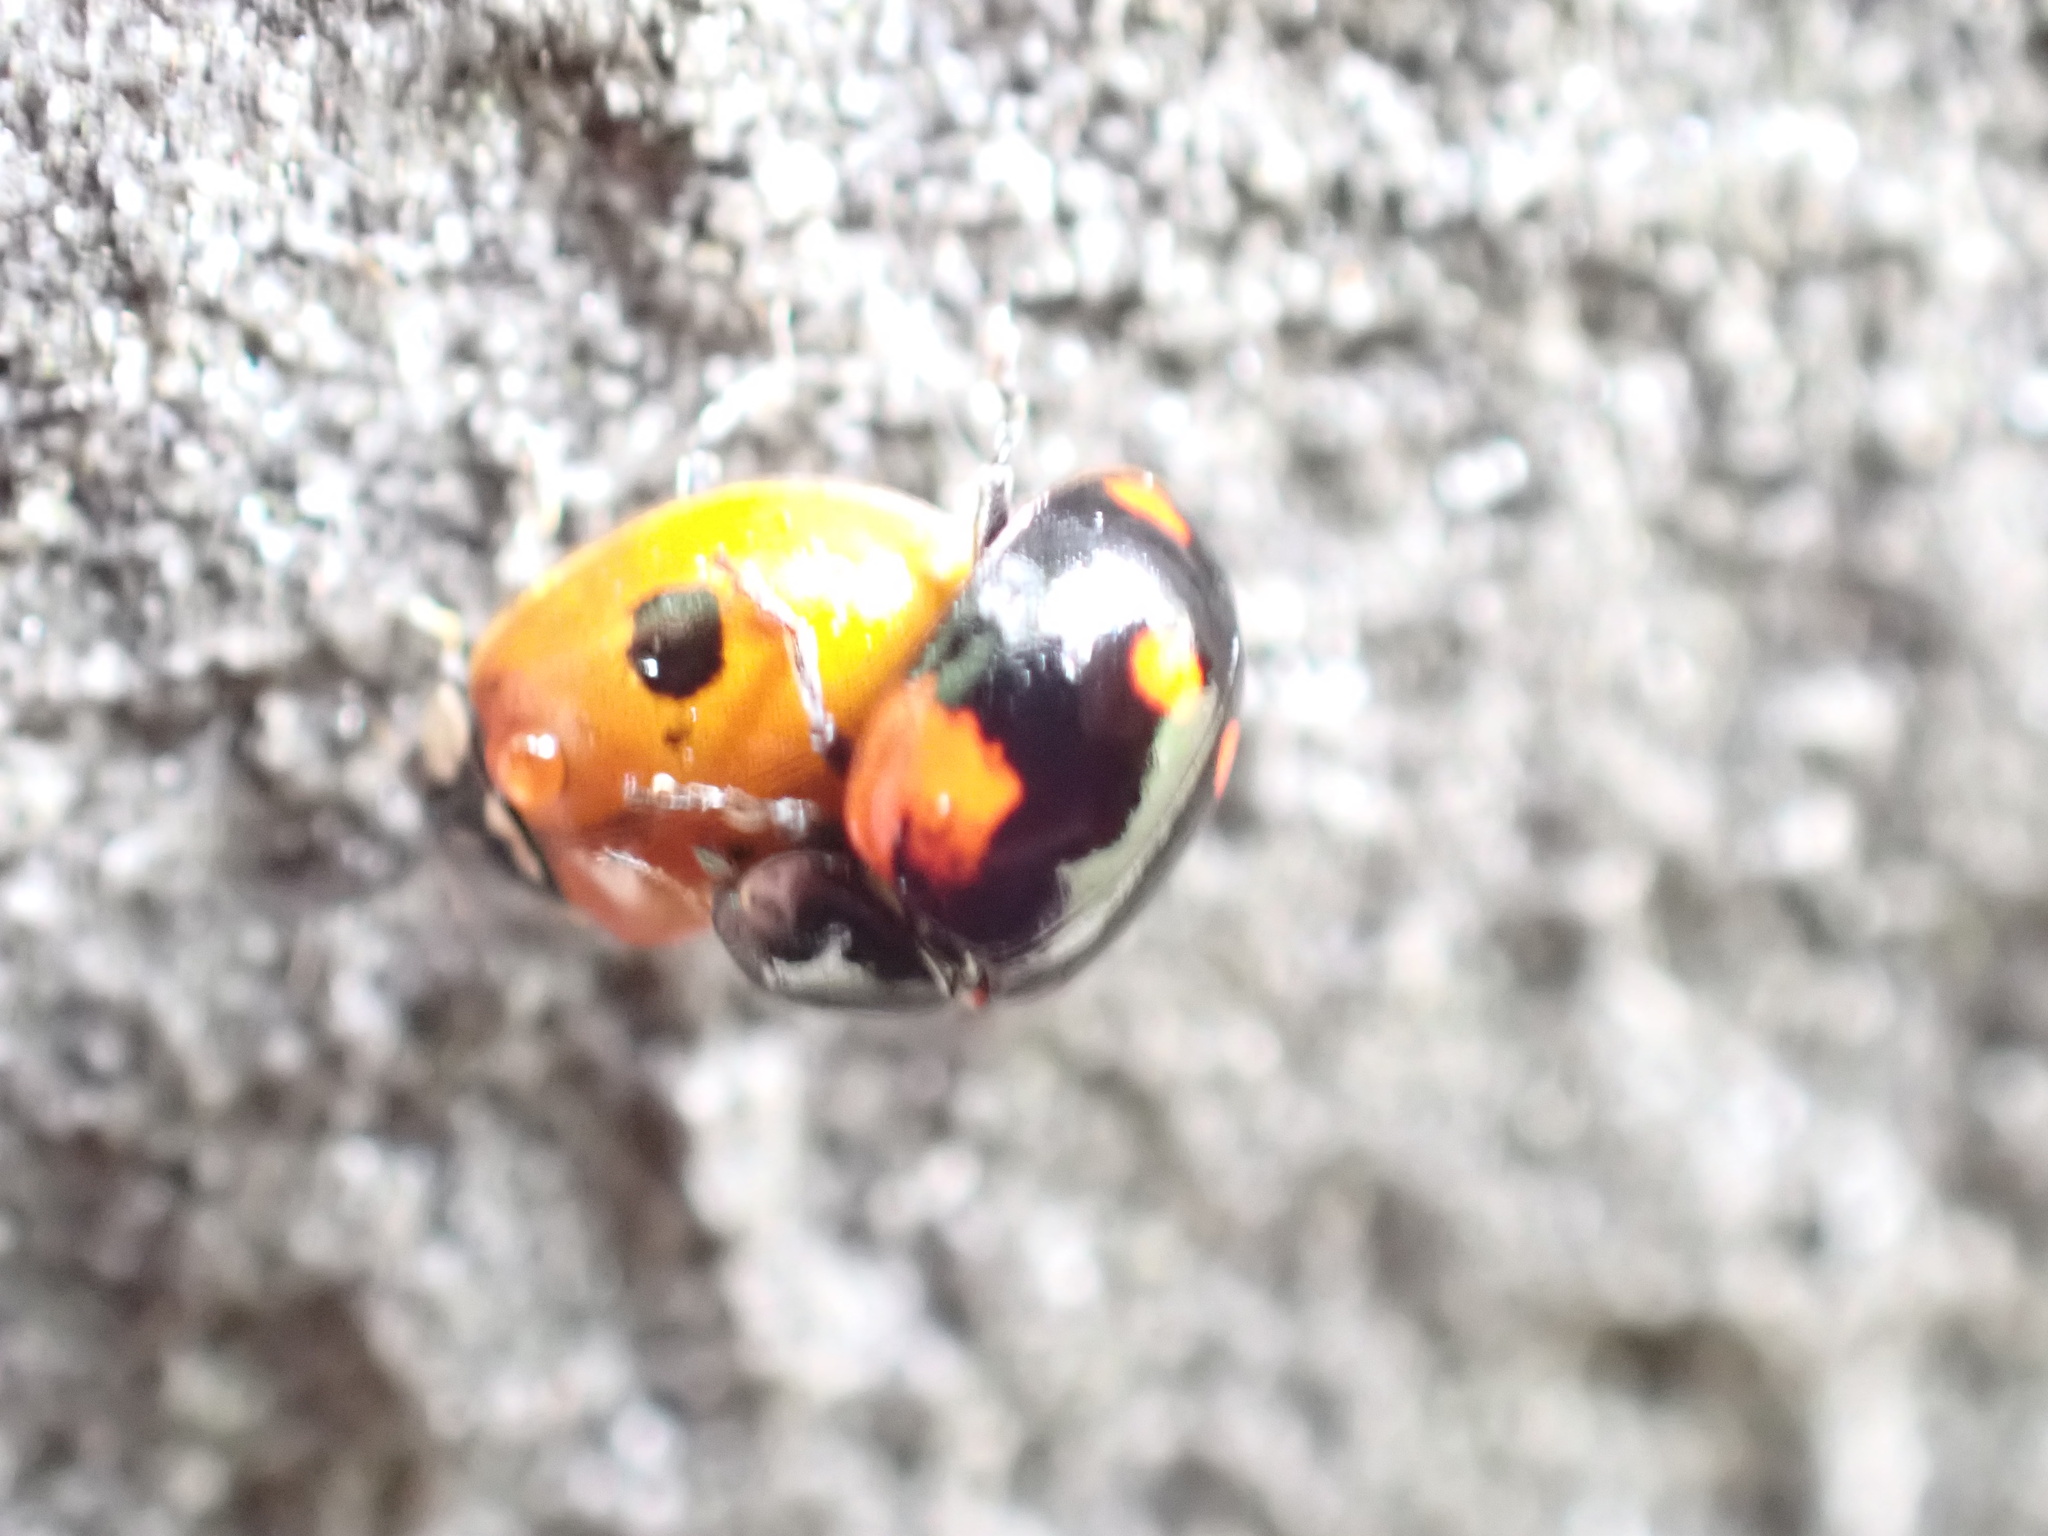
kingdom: Animalia
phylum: Arthropoda
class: Insecta
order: Coleoptera
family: Coccinellidae
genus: Adalia
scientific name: Adalia bipunctata
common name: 2-spot ladybird
